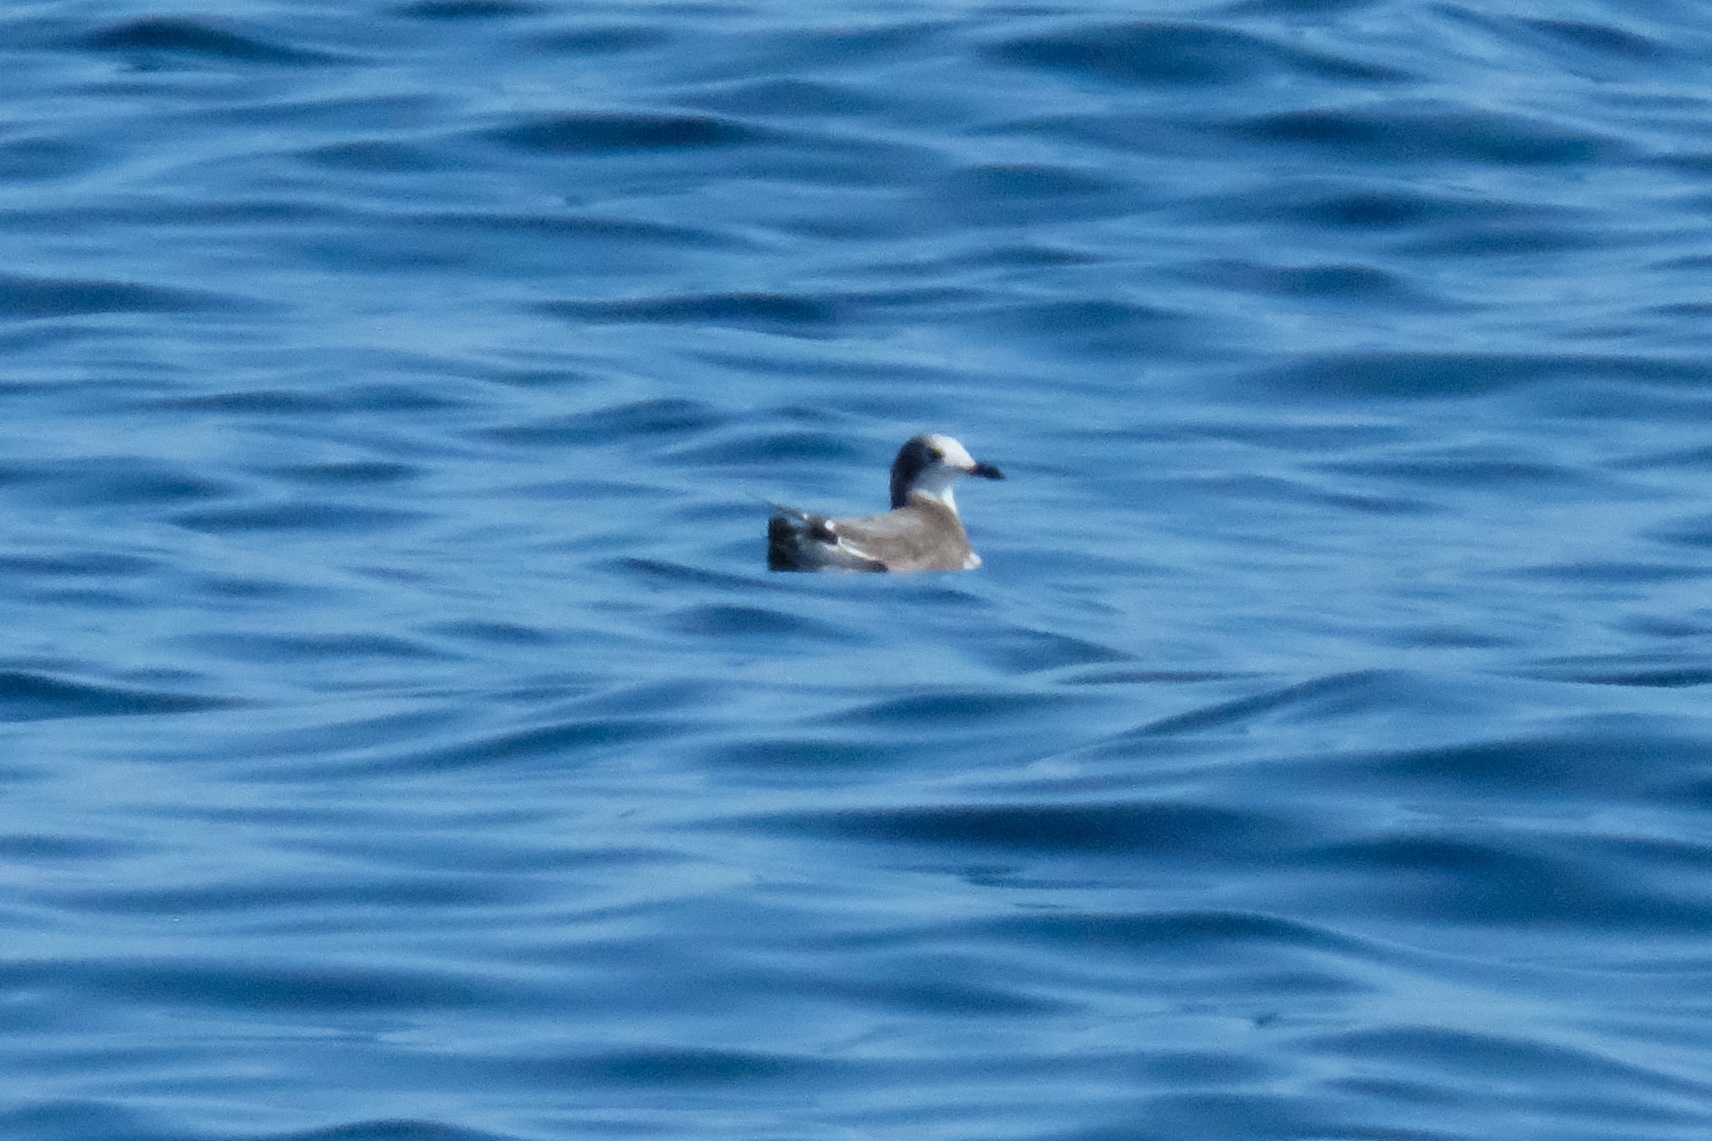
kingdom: Animalia
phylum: Chordata
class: Aves
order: Charadriiformes
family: Laridae
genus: Xema
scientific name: Xema sabini
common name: Sabine's gull
